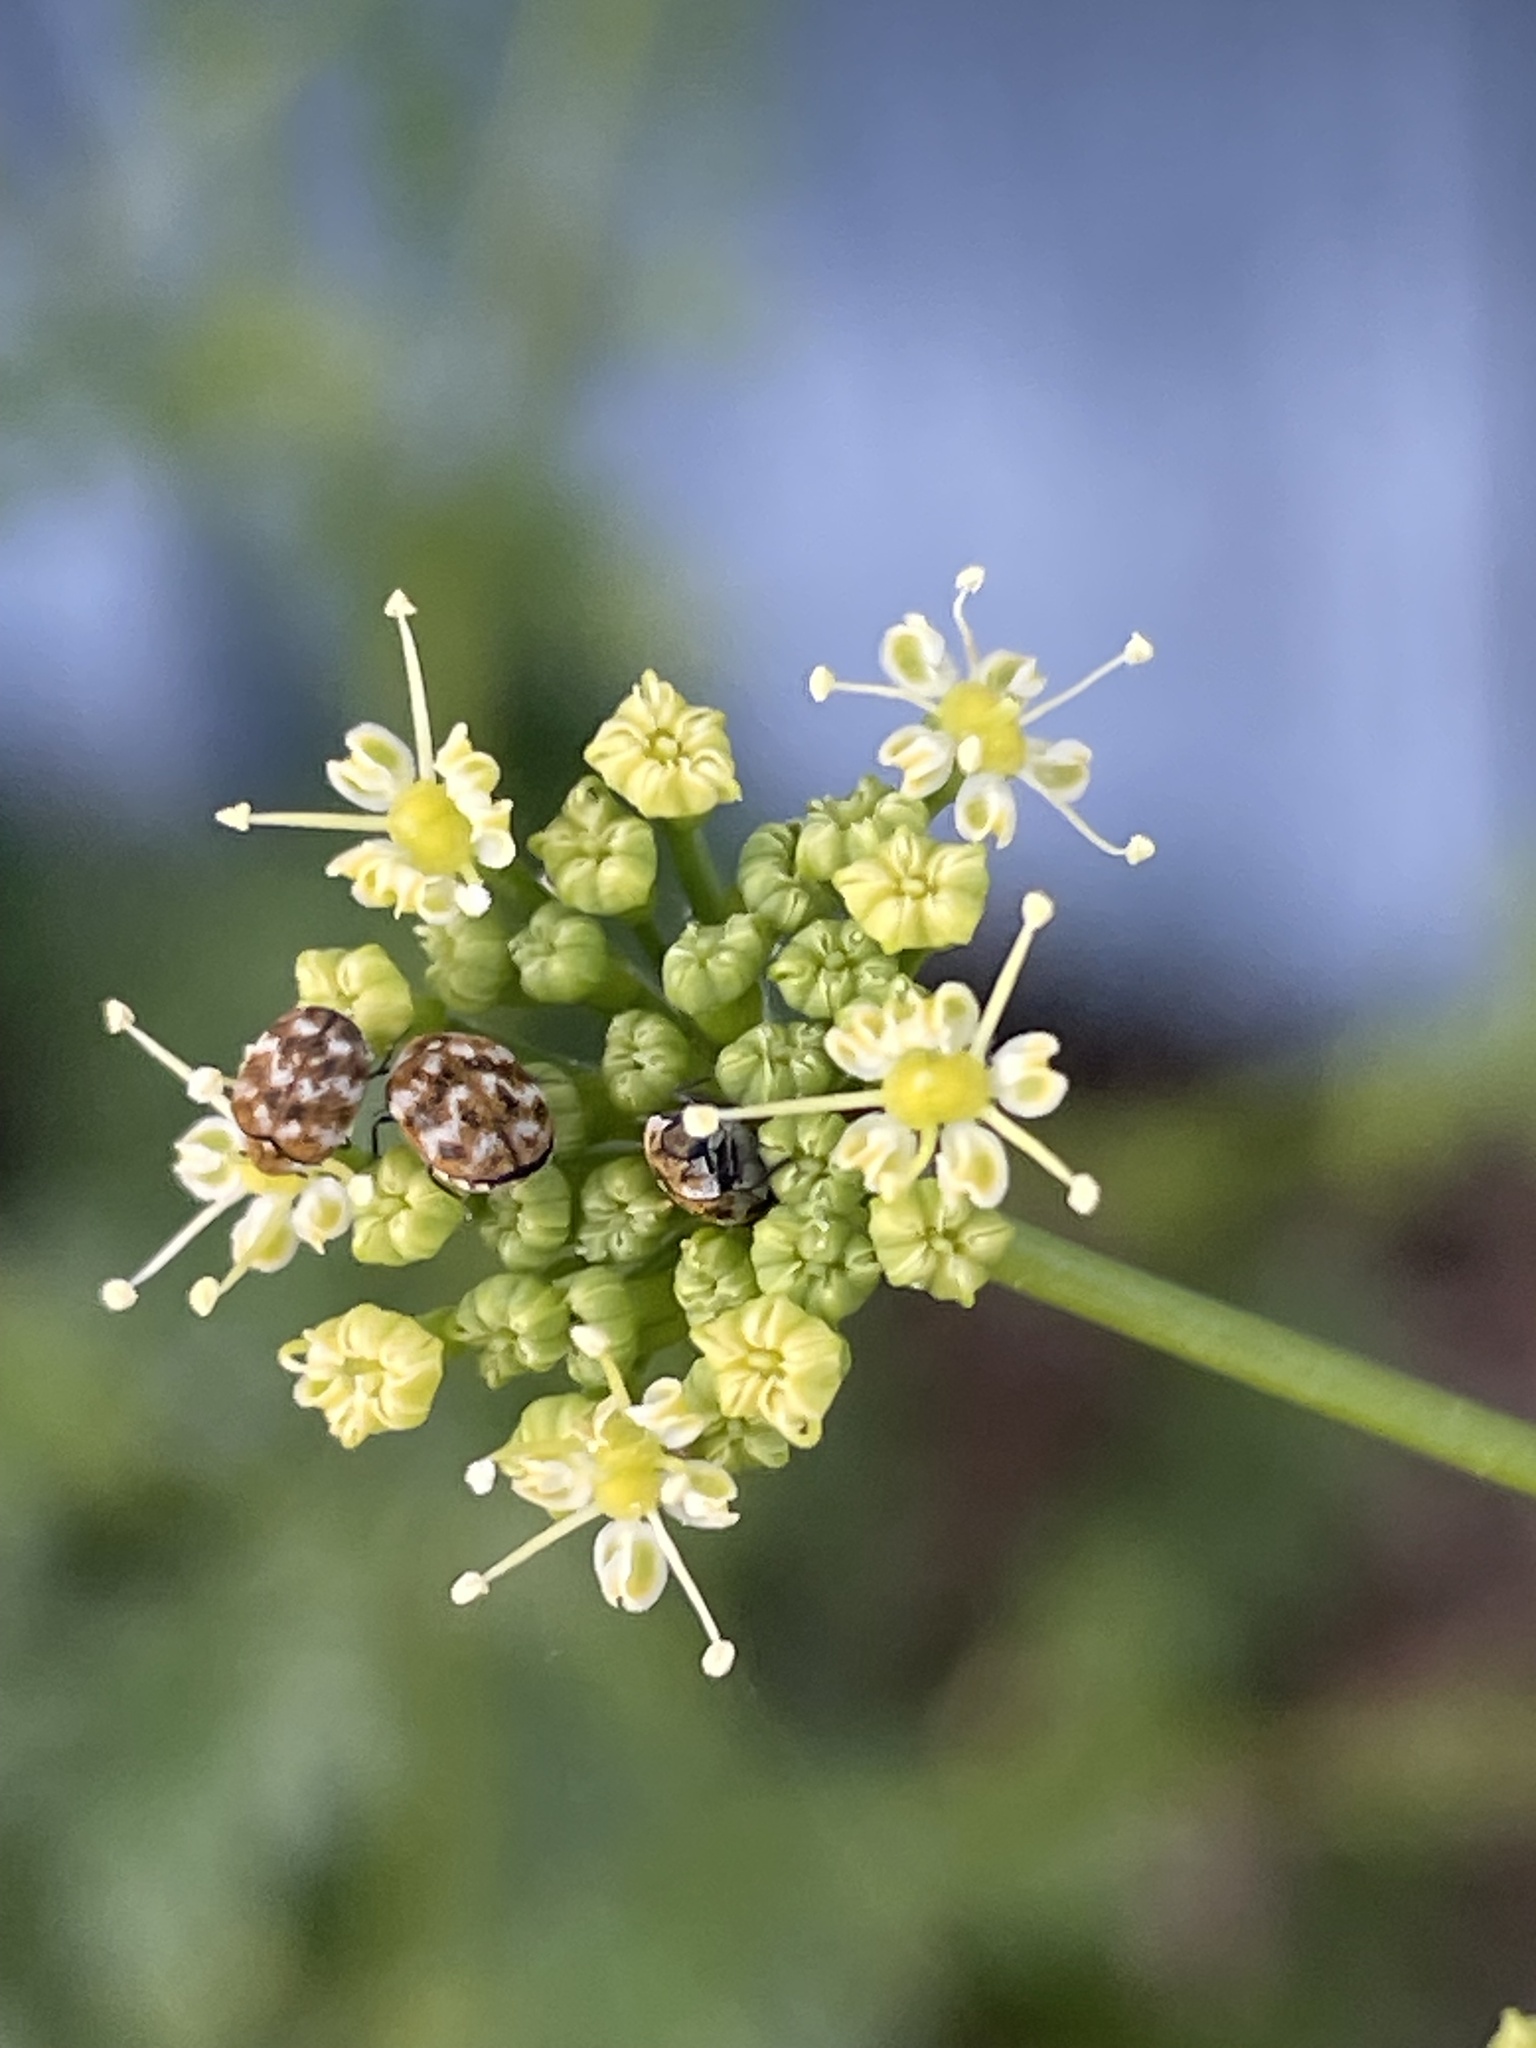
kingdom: Animalia
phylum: Arthropoda
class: Insecta
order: Coleoptera
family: Dermestidae
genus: Anthrenus
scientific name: Anthrenus verbasci
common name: Varied carpet beetle
